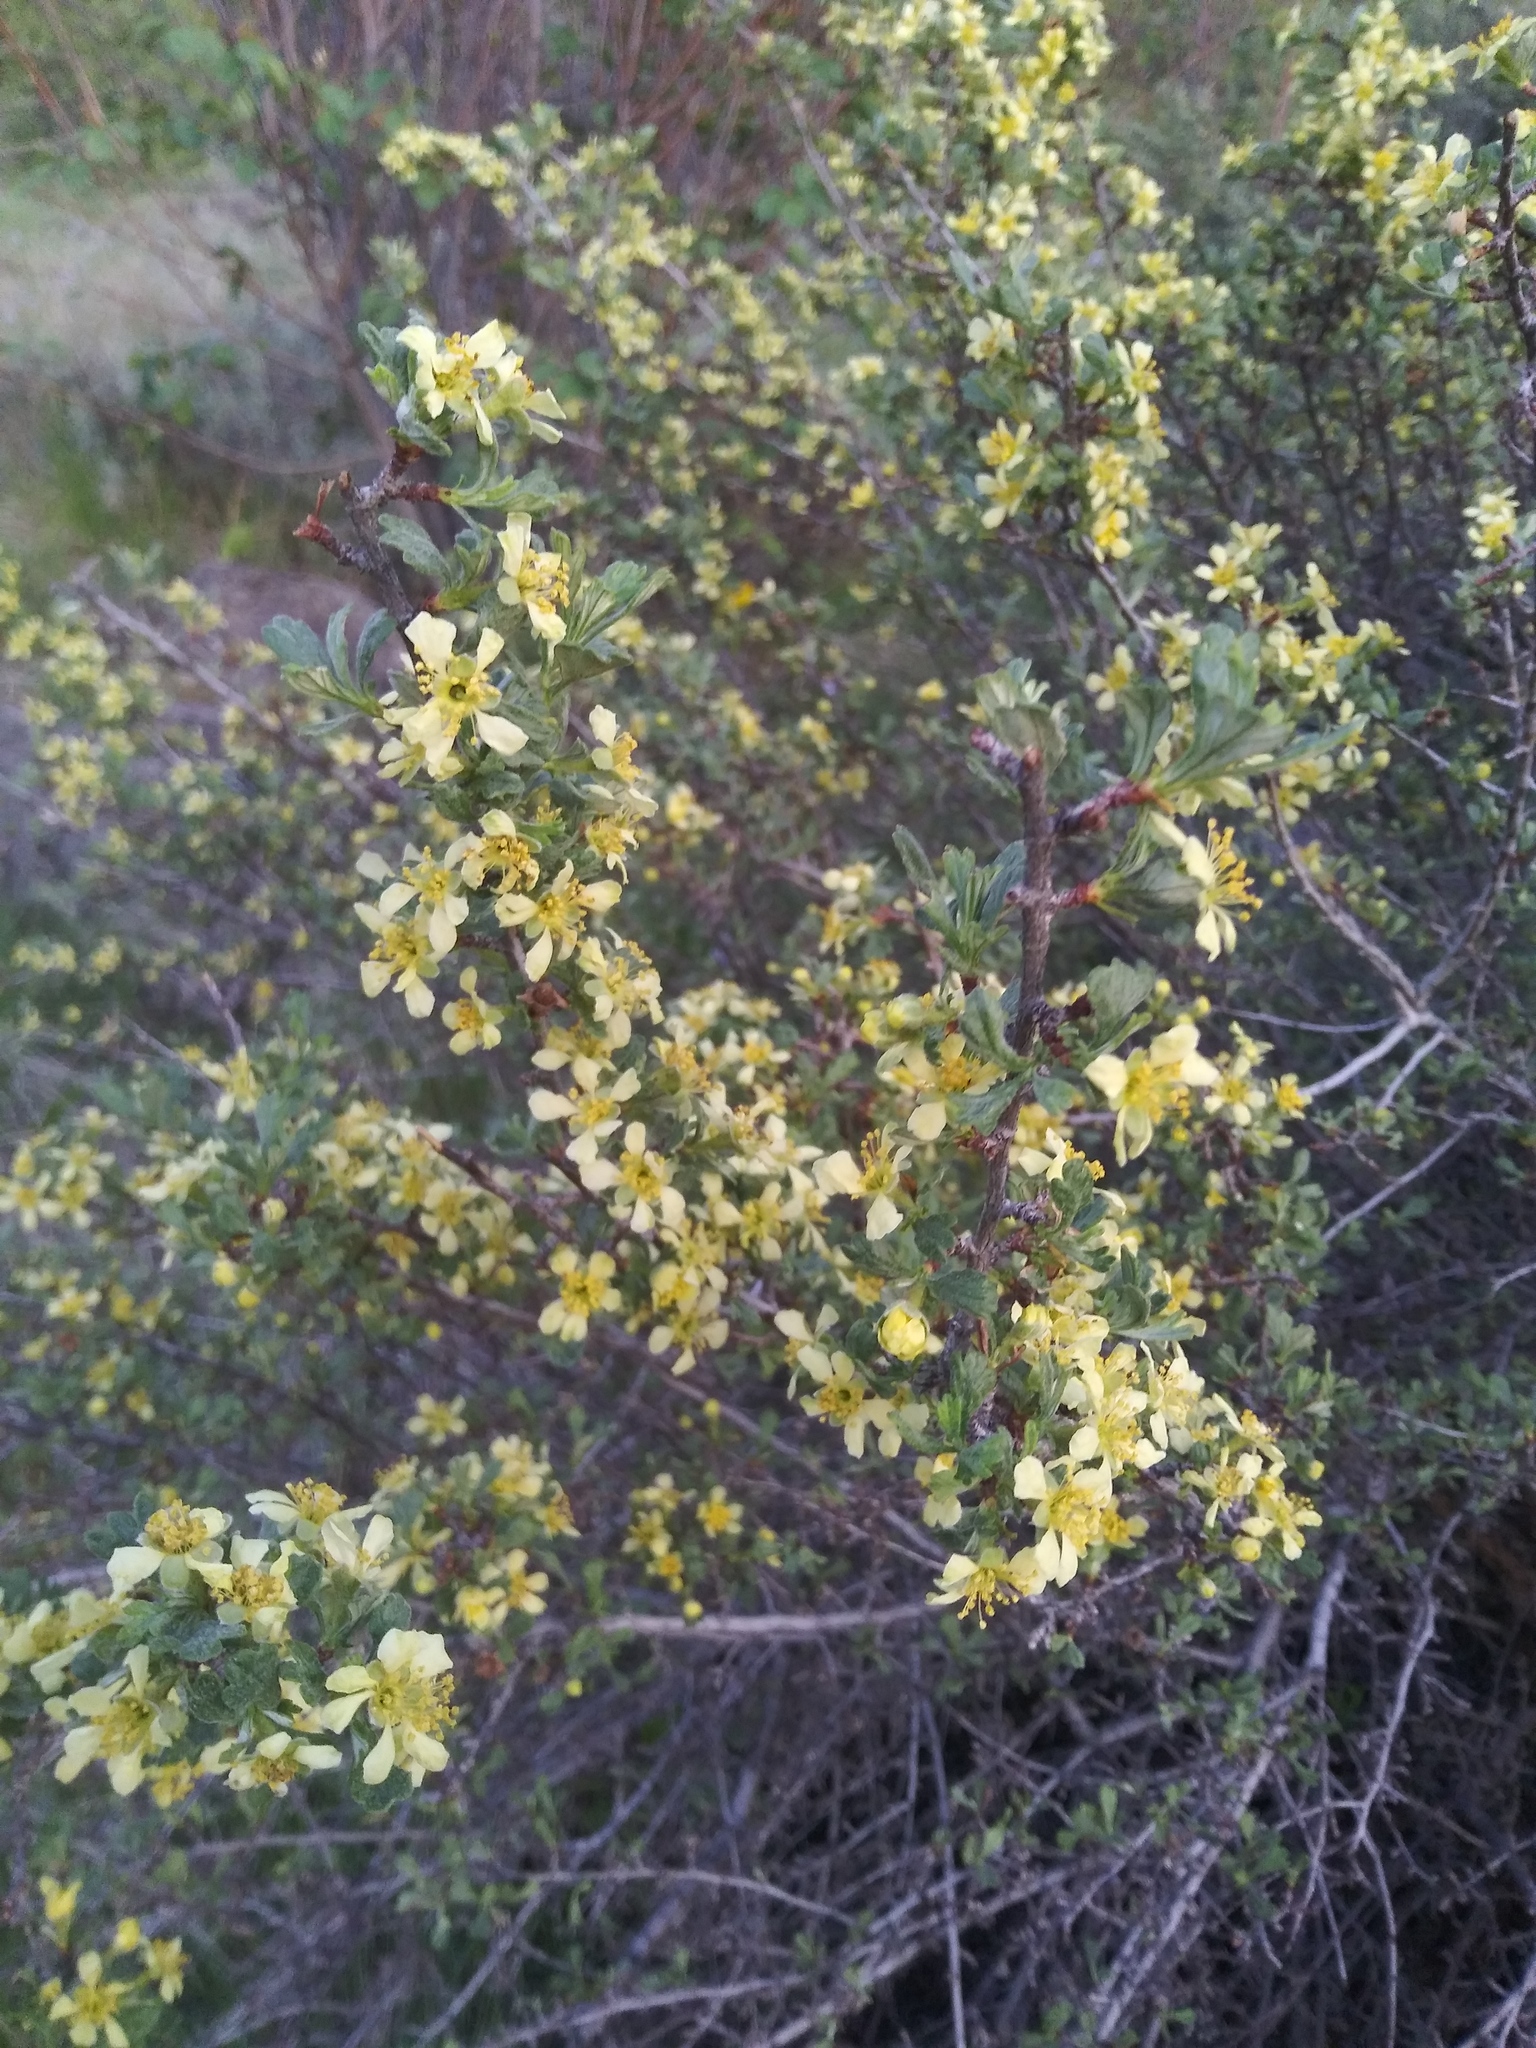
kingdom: Plantae
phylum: Tracheophyta
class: Magnoliopsida
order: Rosales
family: Rosaceae
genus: Purshia
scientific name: Purshia tridentata
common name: Antelope bitterbrush
